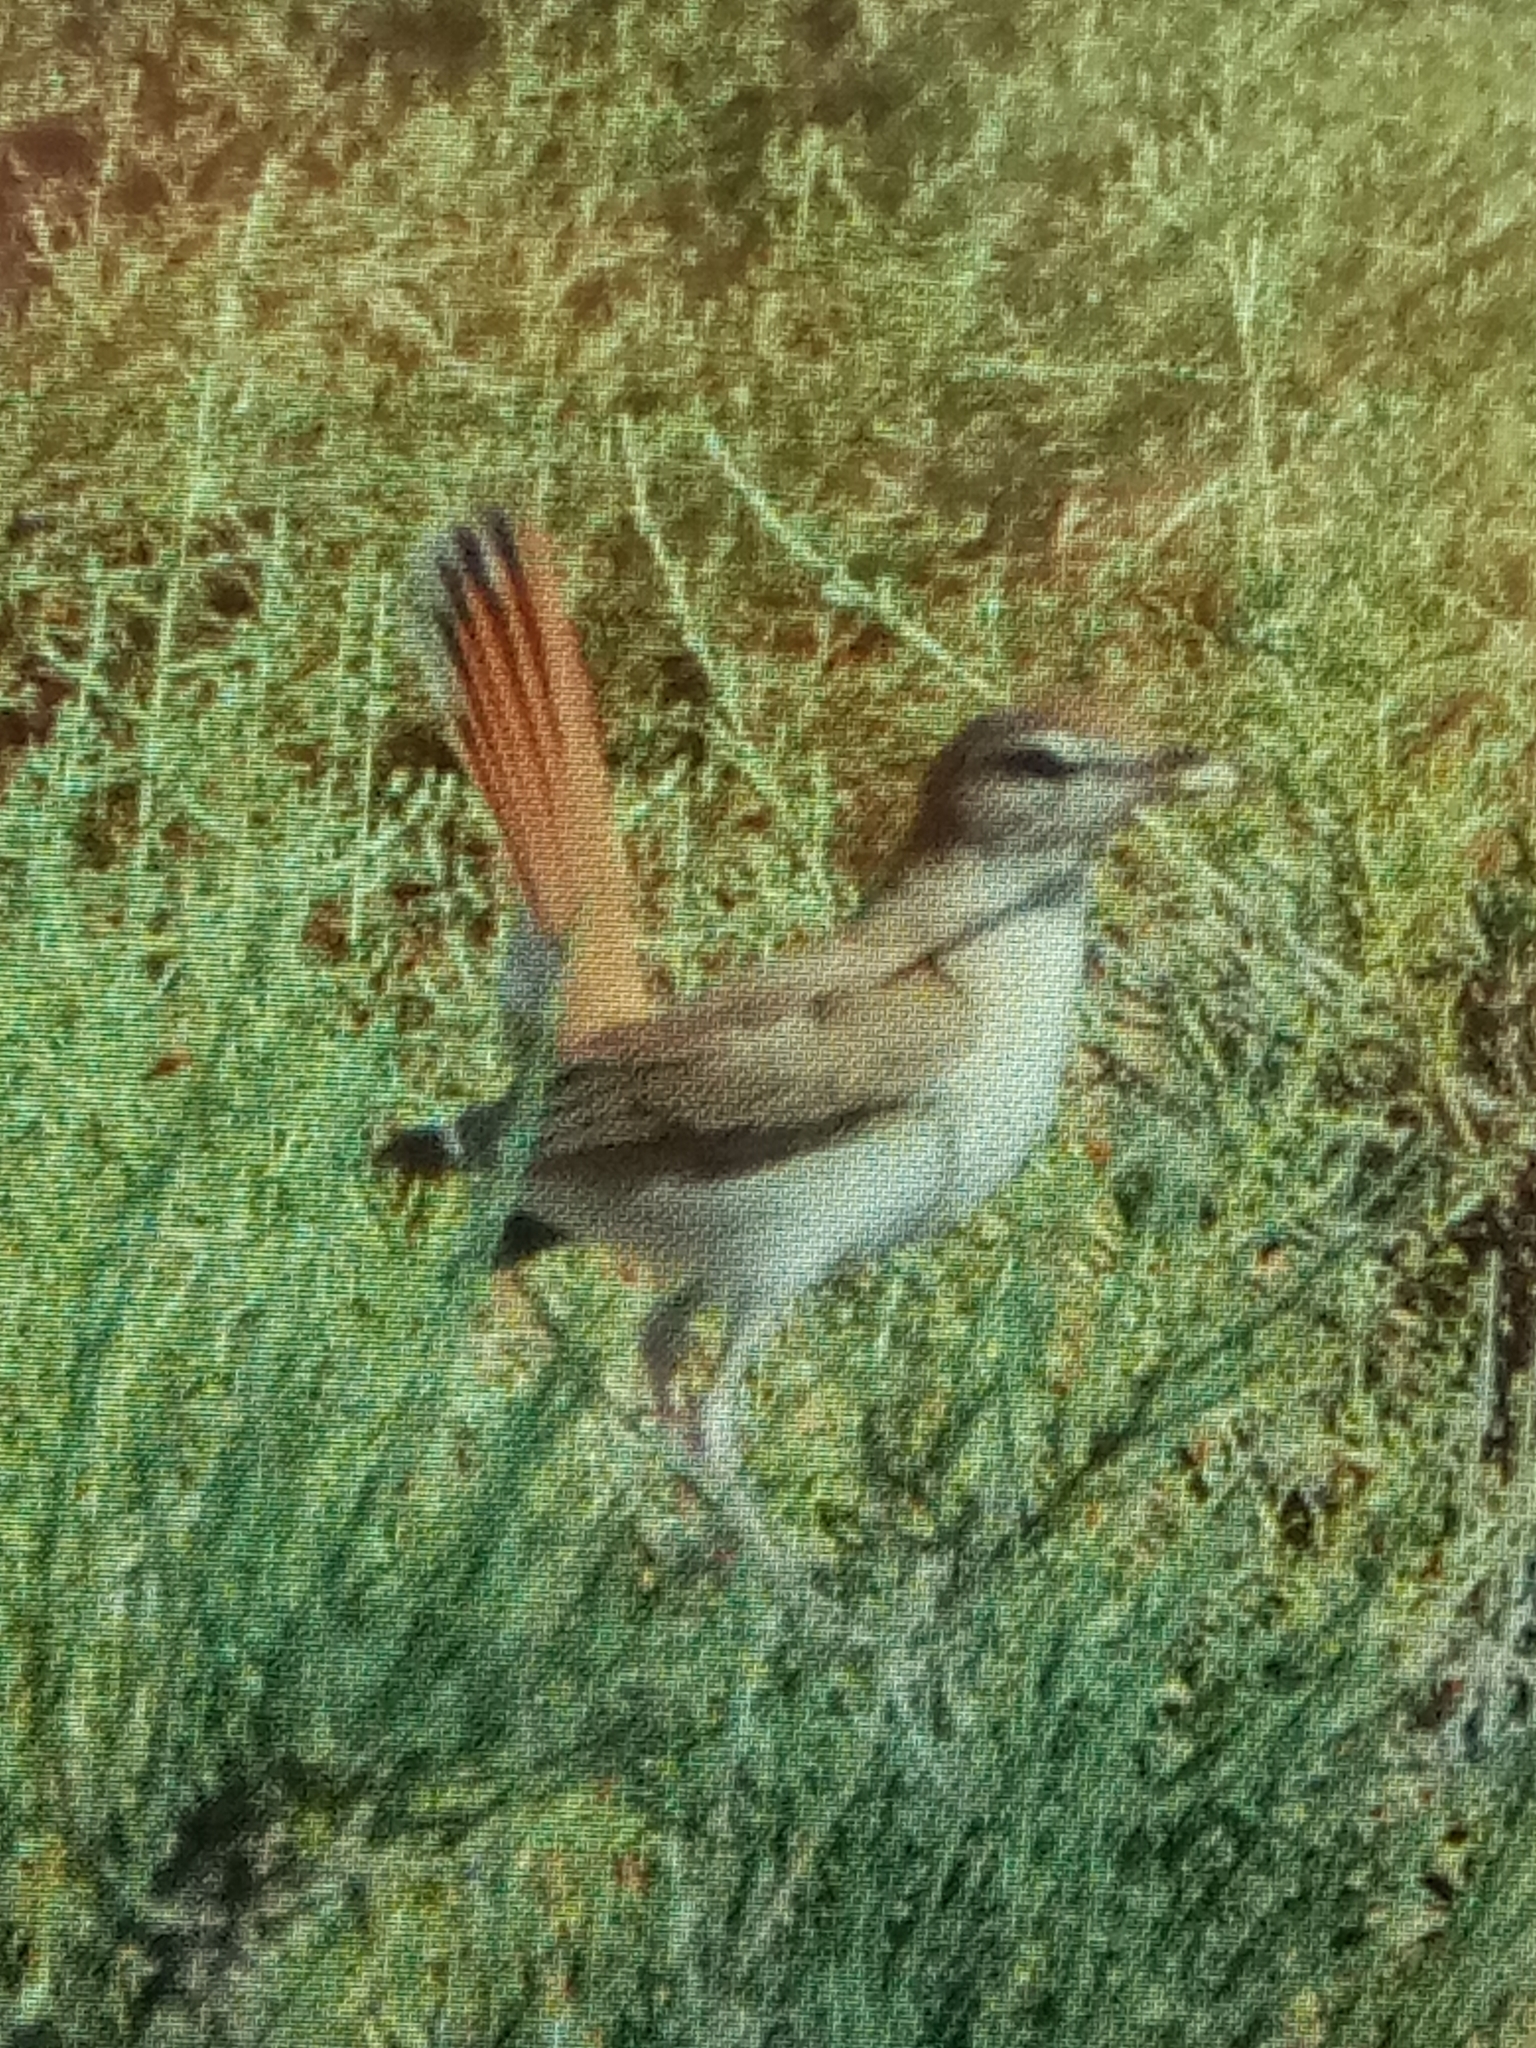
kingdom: Animalia
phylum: Chordata
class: Aves
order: Passeriformes
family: Muscicapidae
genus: Erythropygia
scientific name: Erythropygia galactotes
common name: Rufous-tailed scrub robin
